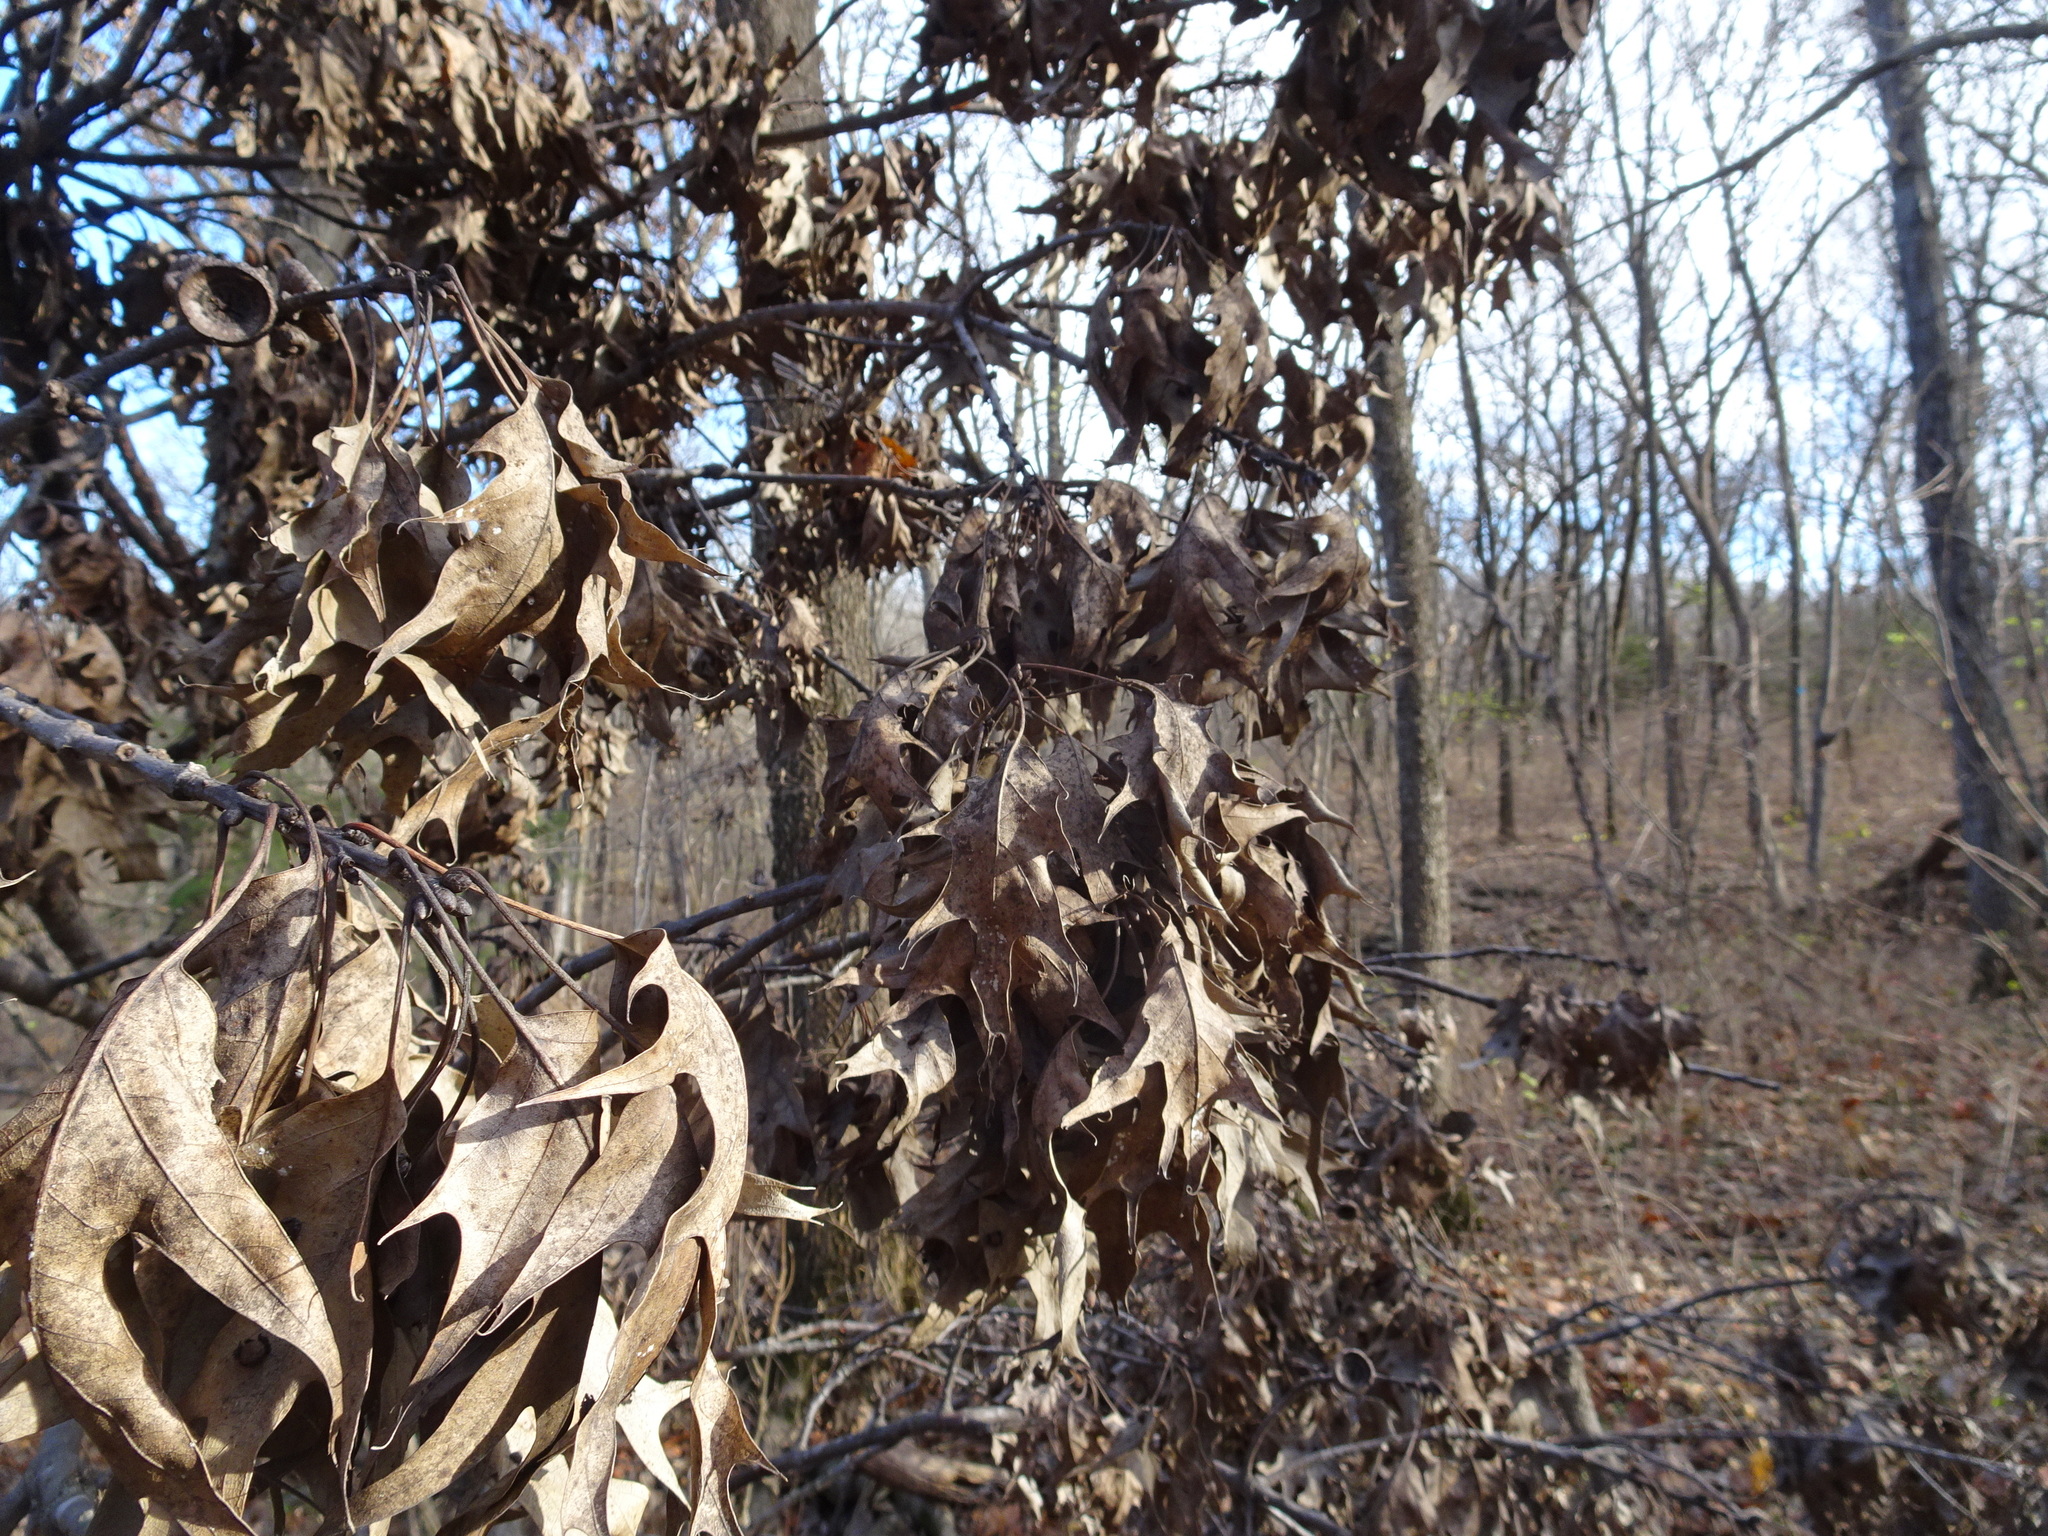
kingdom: Plantae
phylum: Tracheophyta
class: Magnoliopsida
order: Fagales
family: Fagaceae
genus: Quercus
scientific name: Quercus velutina
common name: Black oak
